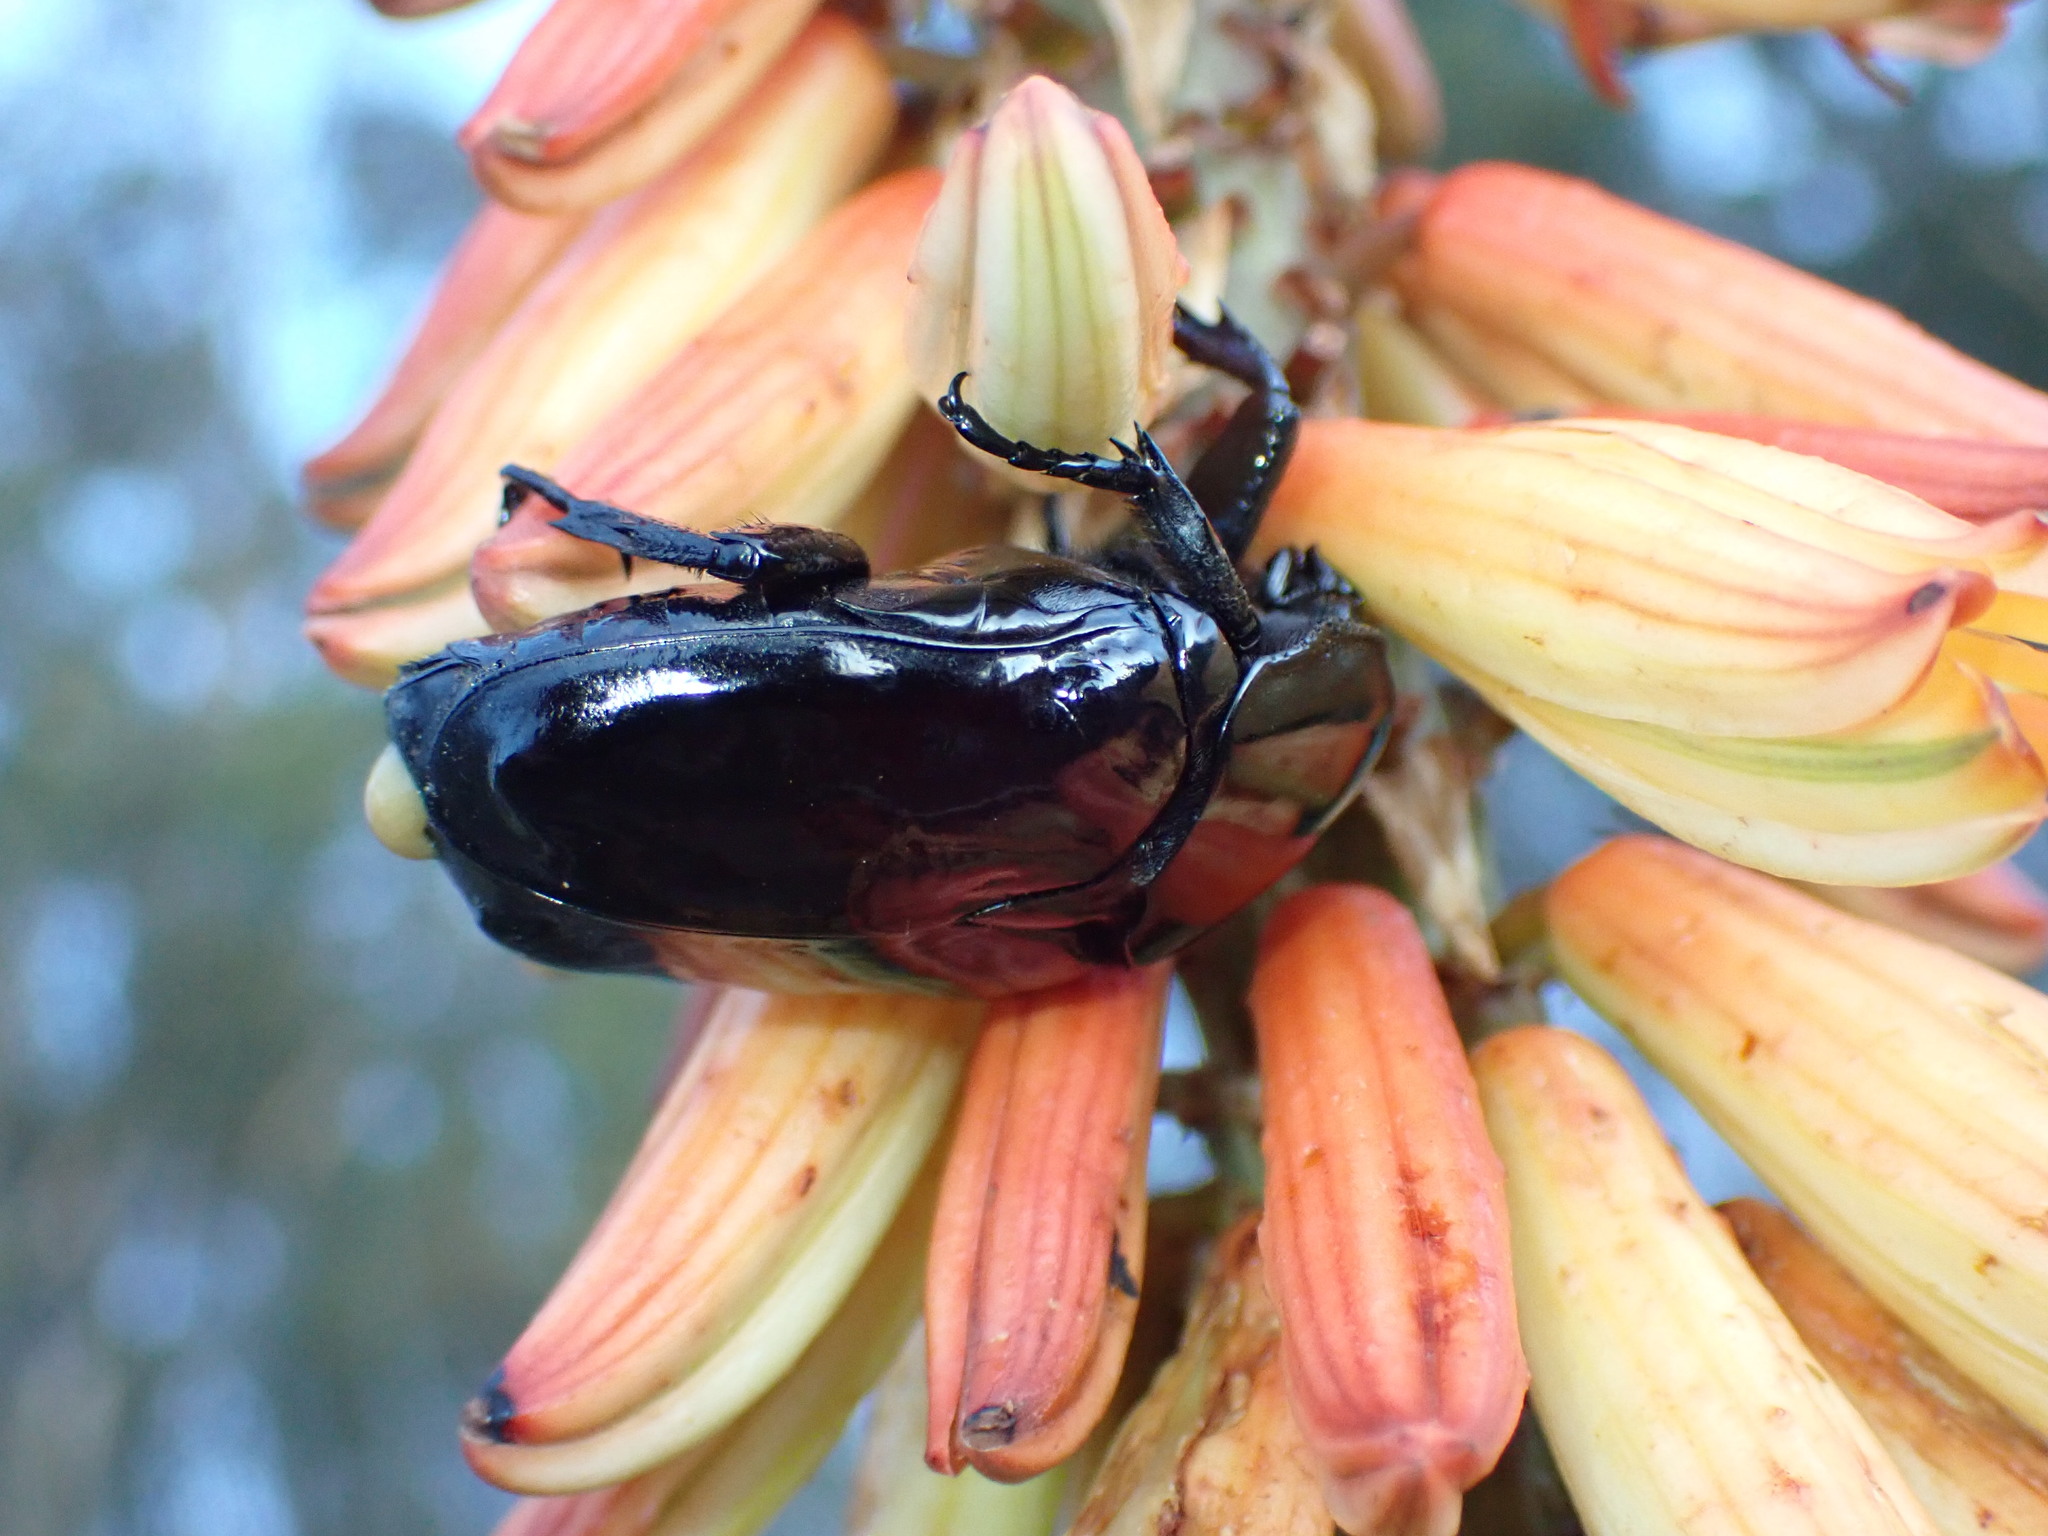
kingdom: Animalia
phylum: Arthropoda
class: Insecta
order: Coleoptera
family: Scarabaeidae
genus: Diplognatha
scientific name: Diplognatha gagates
